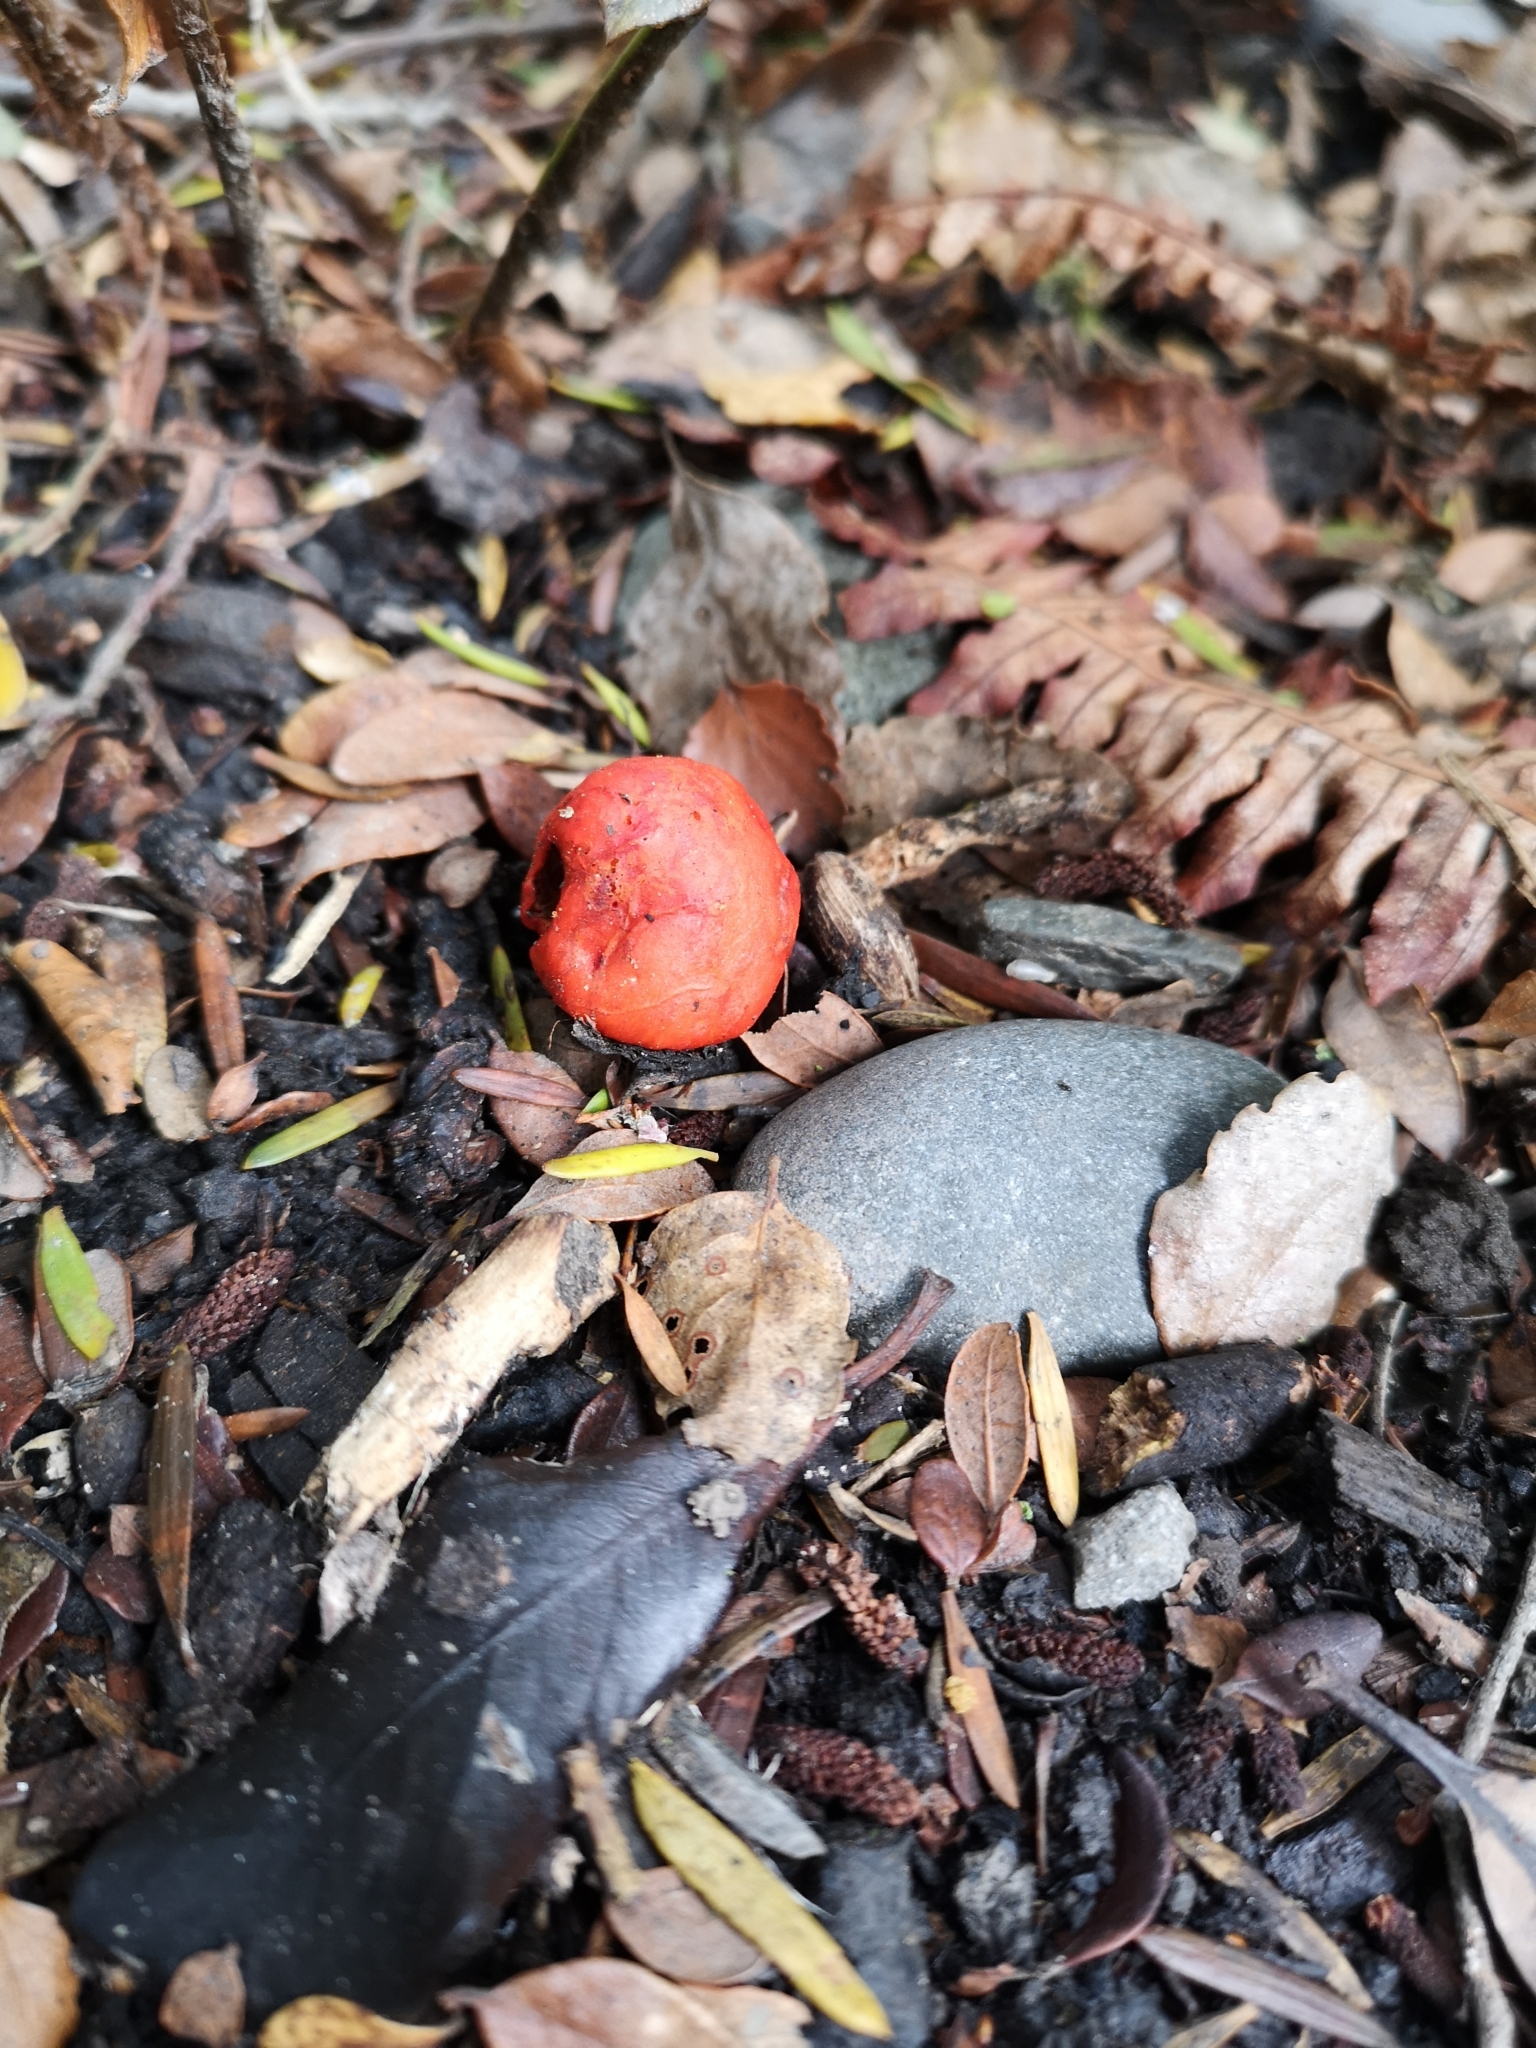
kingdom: Fungi
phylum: Basidiomycota
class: Agaricomycetes
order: Agaricales
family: Strophariaceae
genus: Leratiomyces
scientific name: Leratiomyces erythrocephalus
